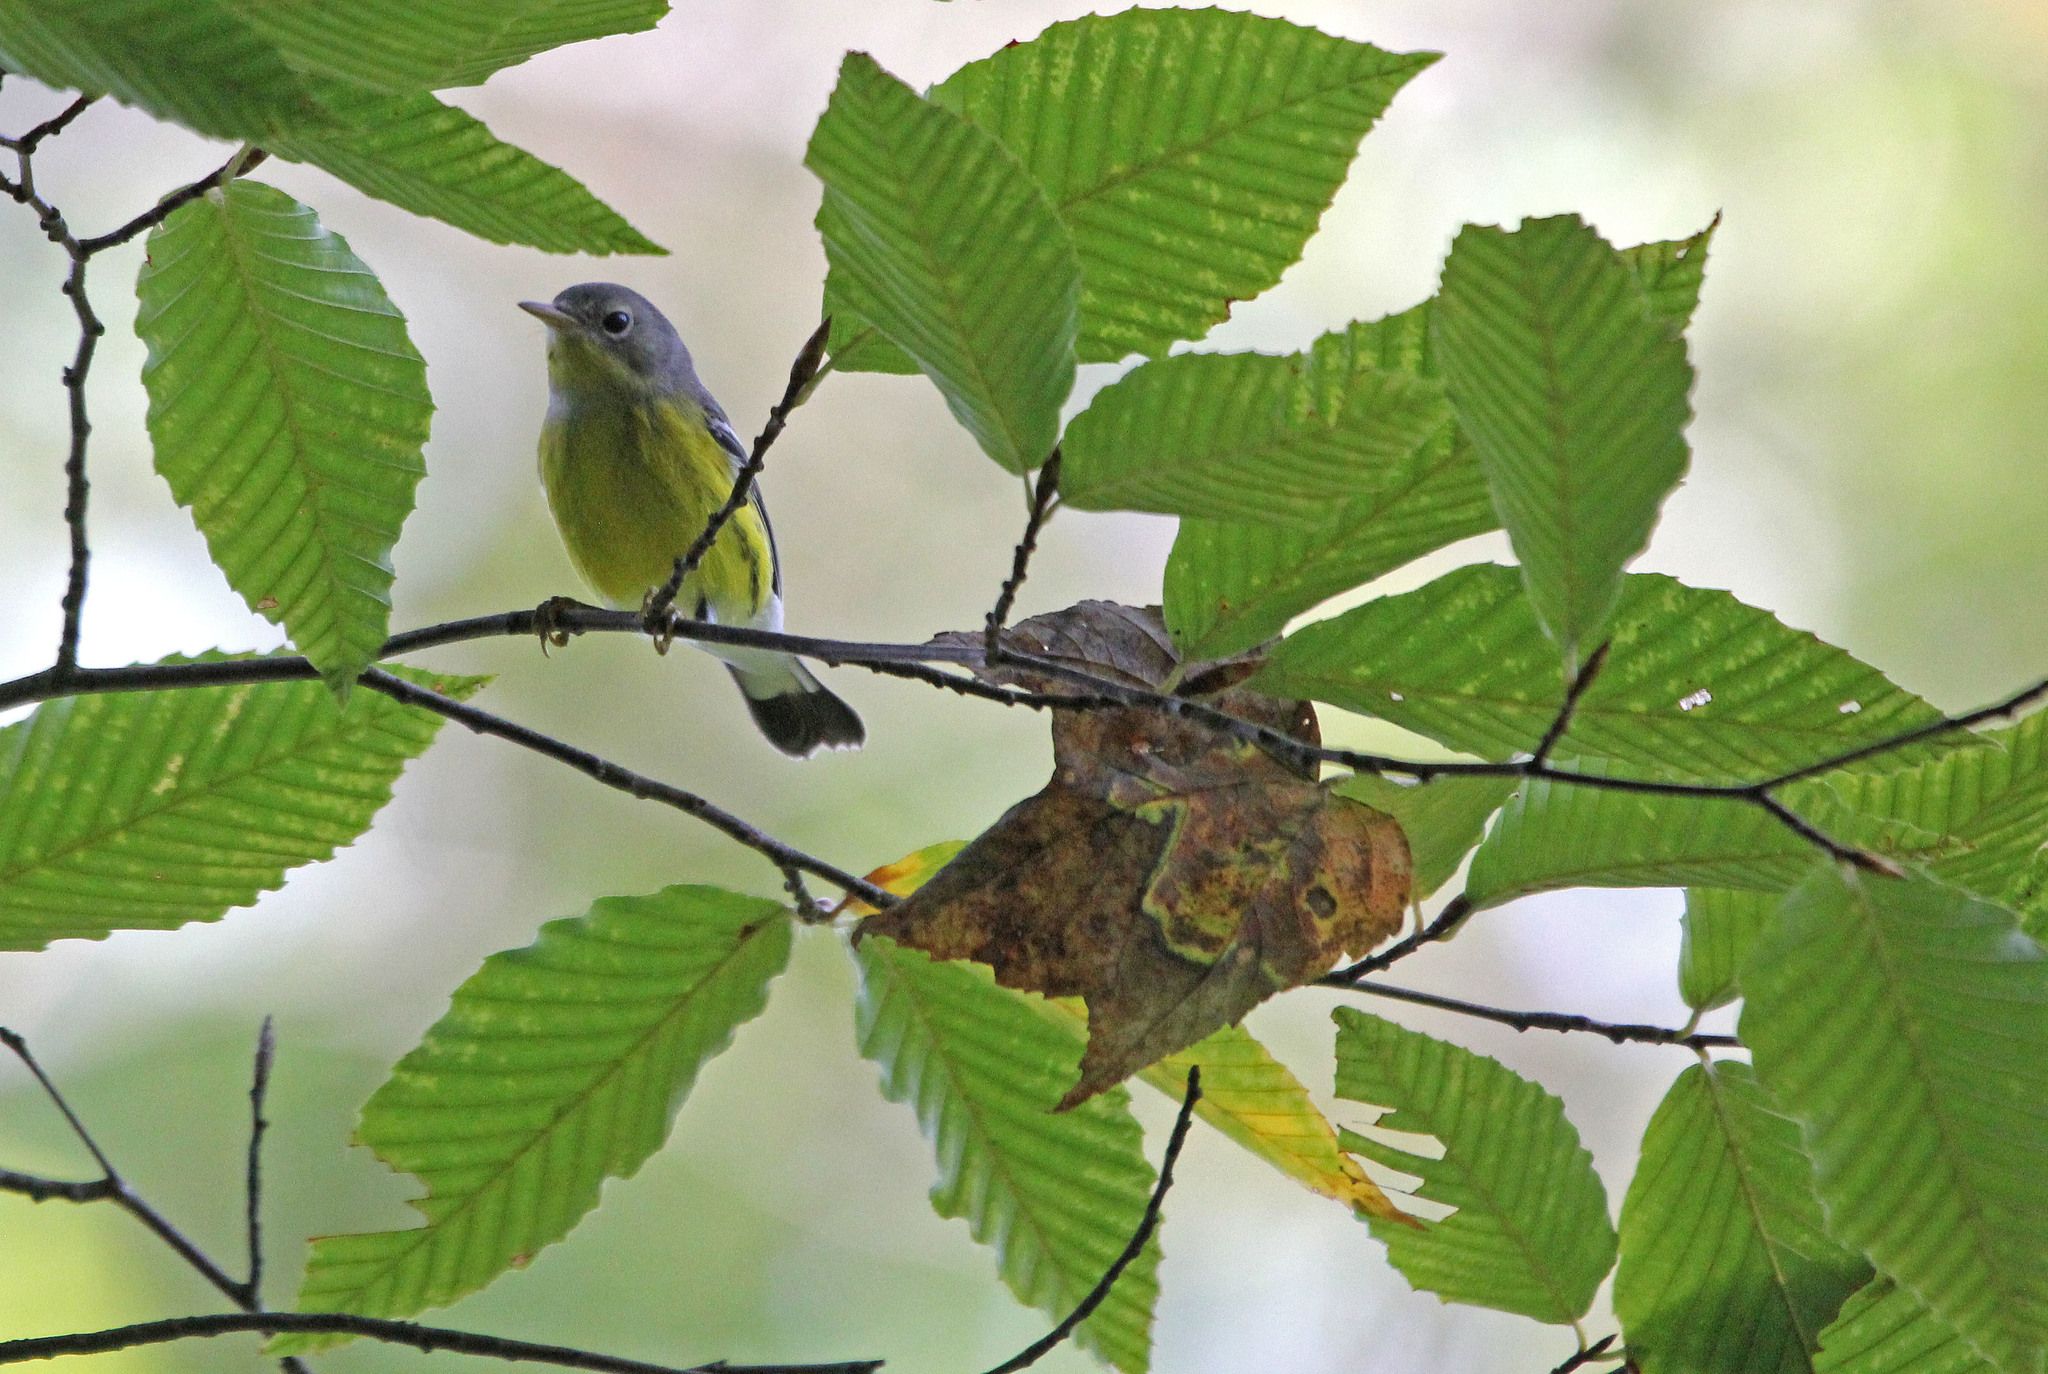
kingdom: Animalia
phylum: Chordata
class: Aves
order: Passeriformes
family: Parulidae
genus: Setophaga
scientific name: Setophaga magnolia
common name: Magnolia warbler
